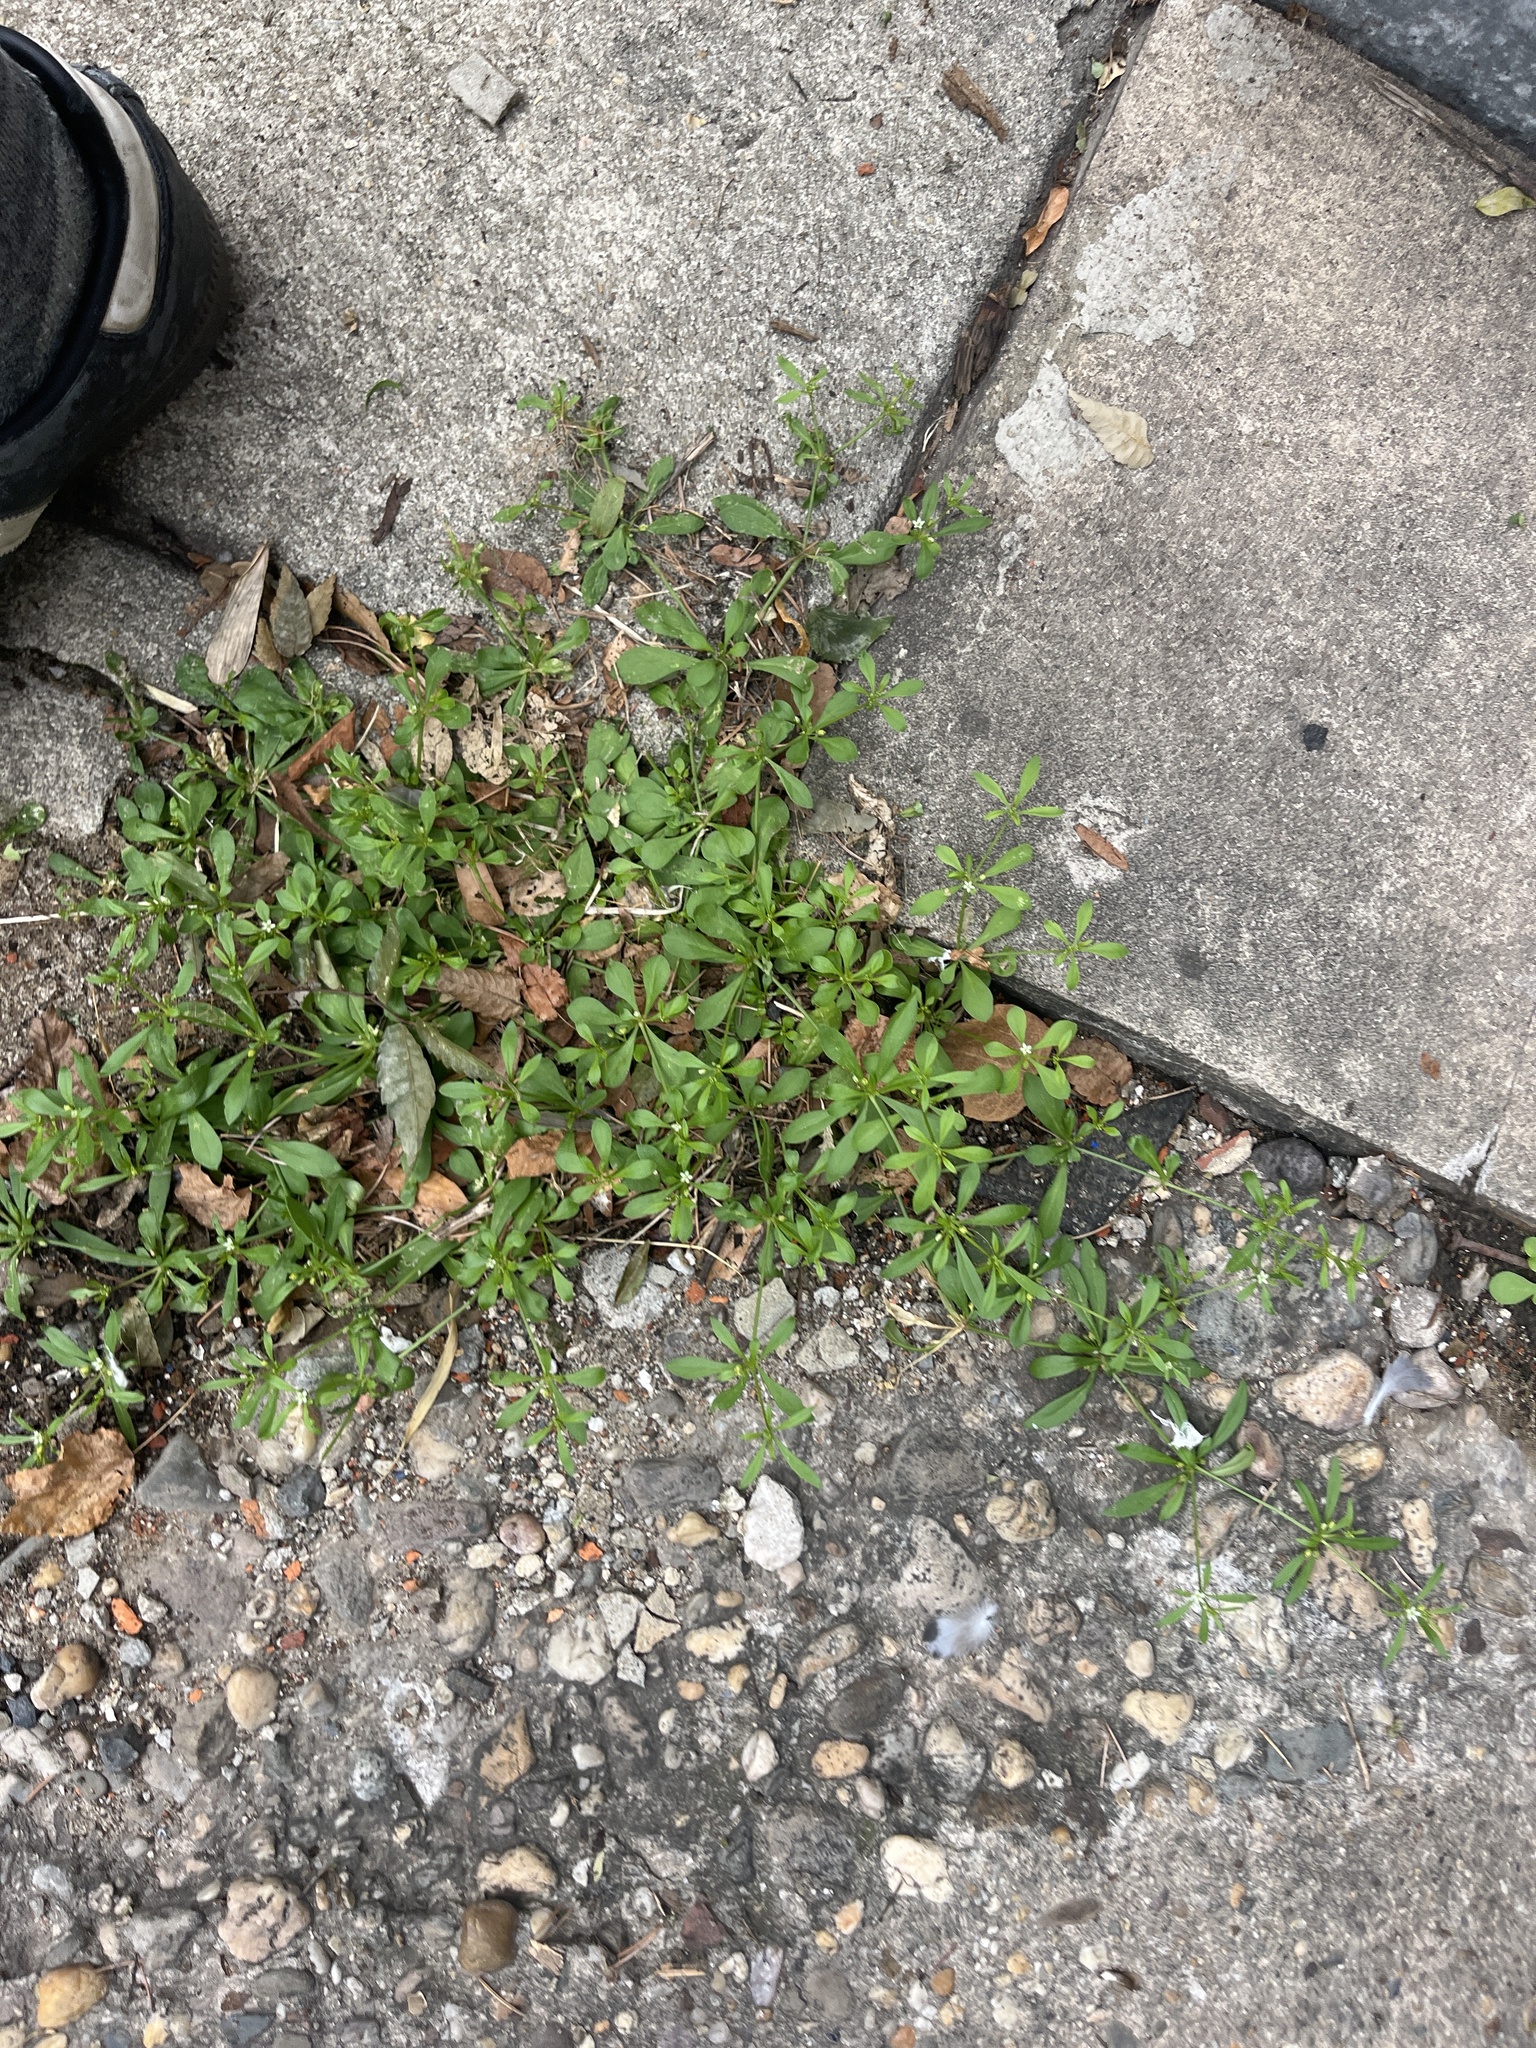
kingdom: Plantae
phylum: Tracheophyta
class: Magnoliopsida
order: Caryophyllales
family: Molluginaceae
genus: Mollugo
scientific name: Mollugo verticillata
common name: Green carpetweed
